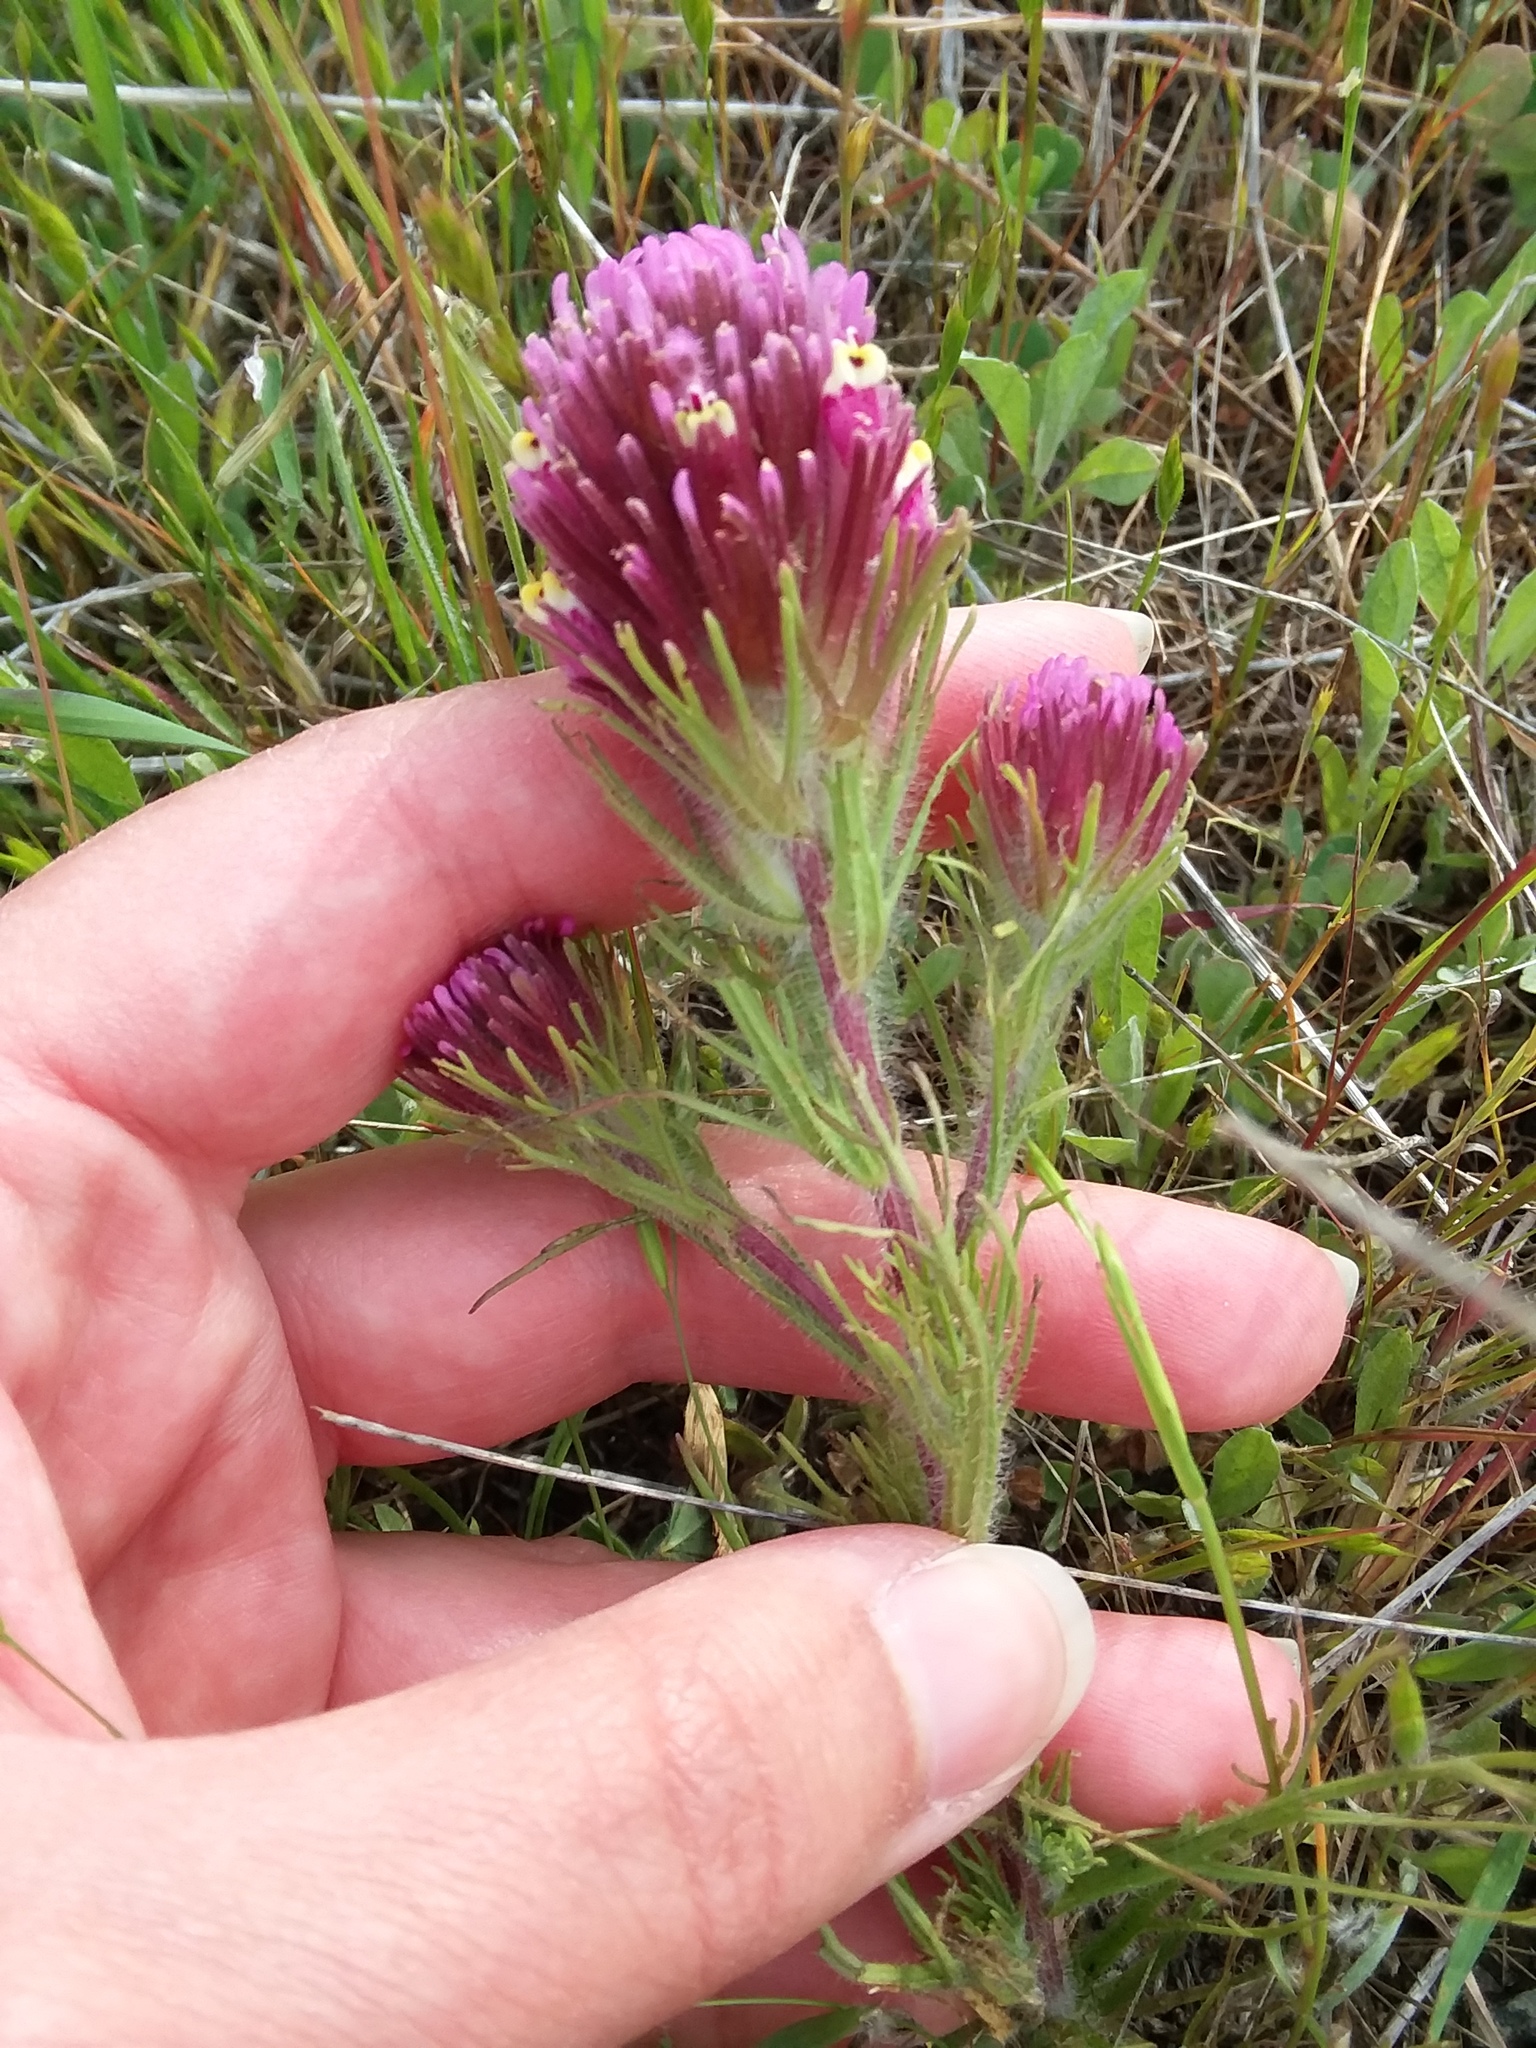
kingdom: Plantae
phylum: Tracheophyta
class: Magnoliopsida
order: Lamiales
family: Orobanchaceae
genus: Castilleja
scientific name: Castilleja exserta
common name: Purple owl-clover
